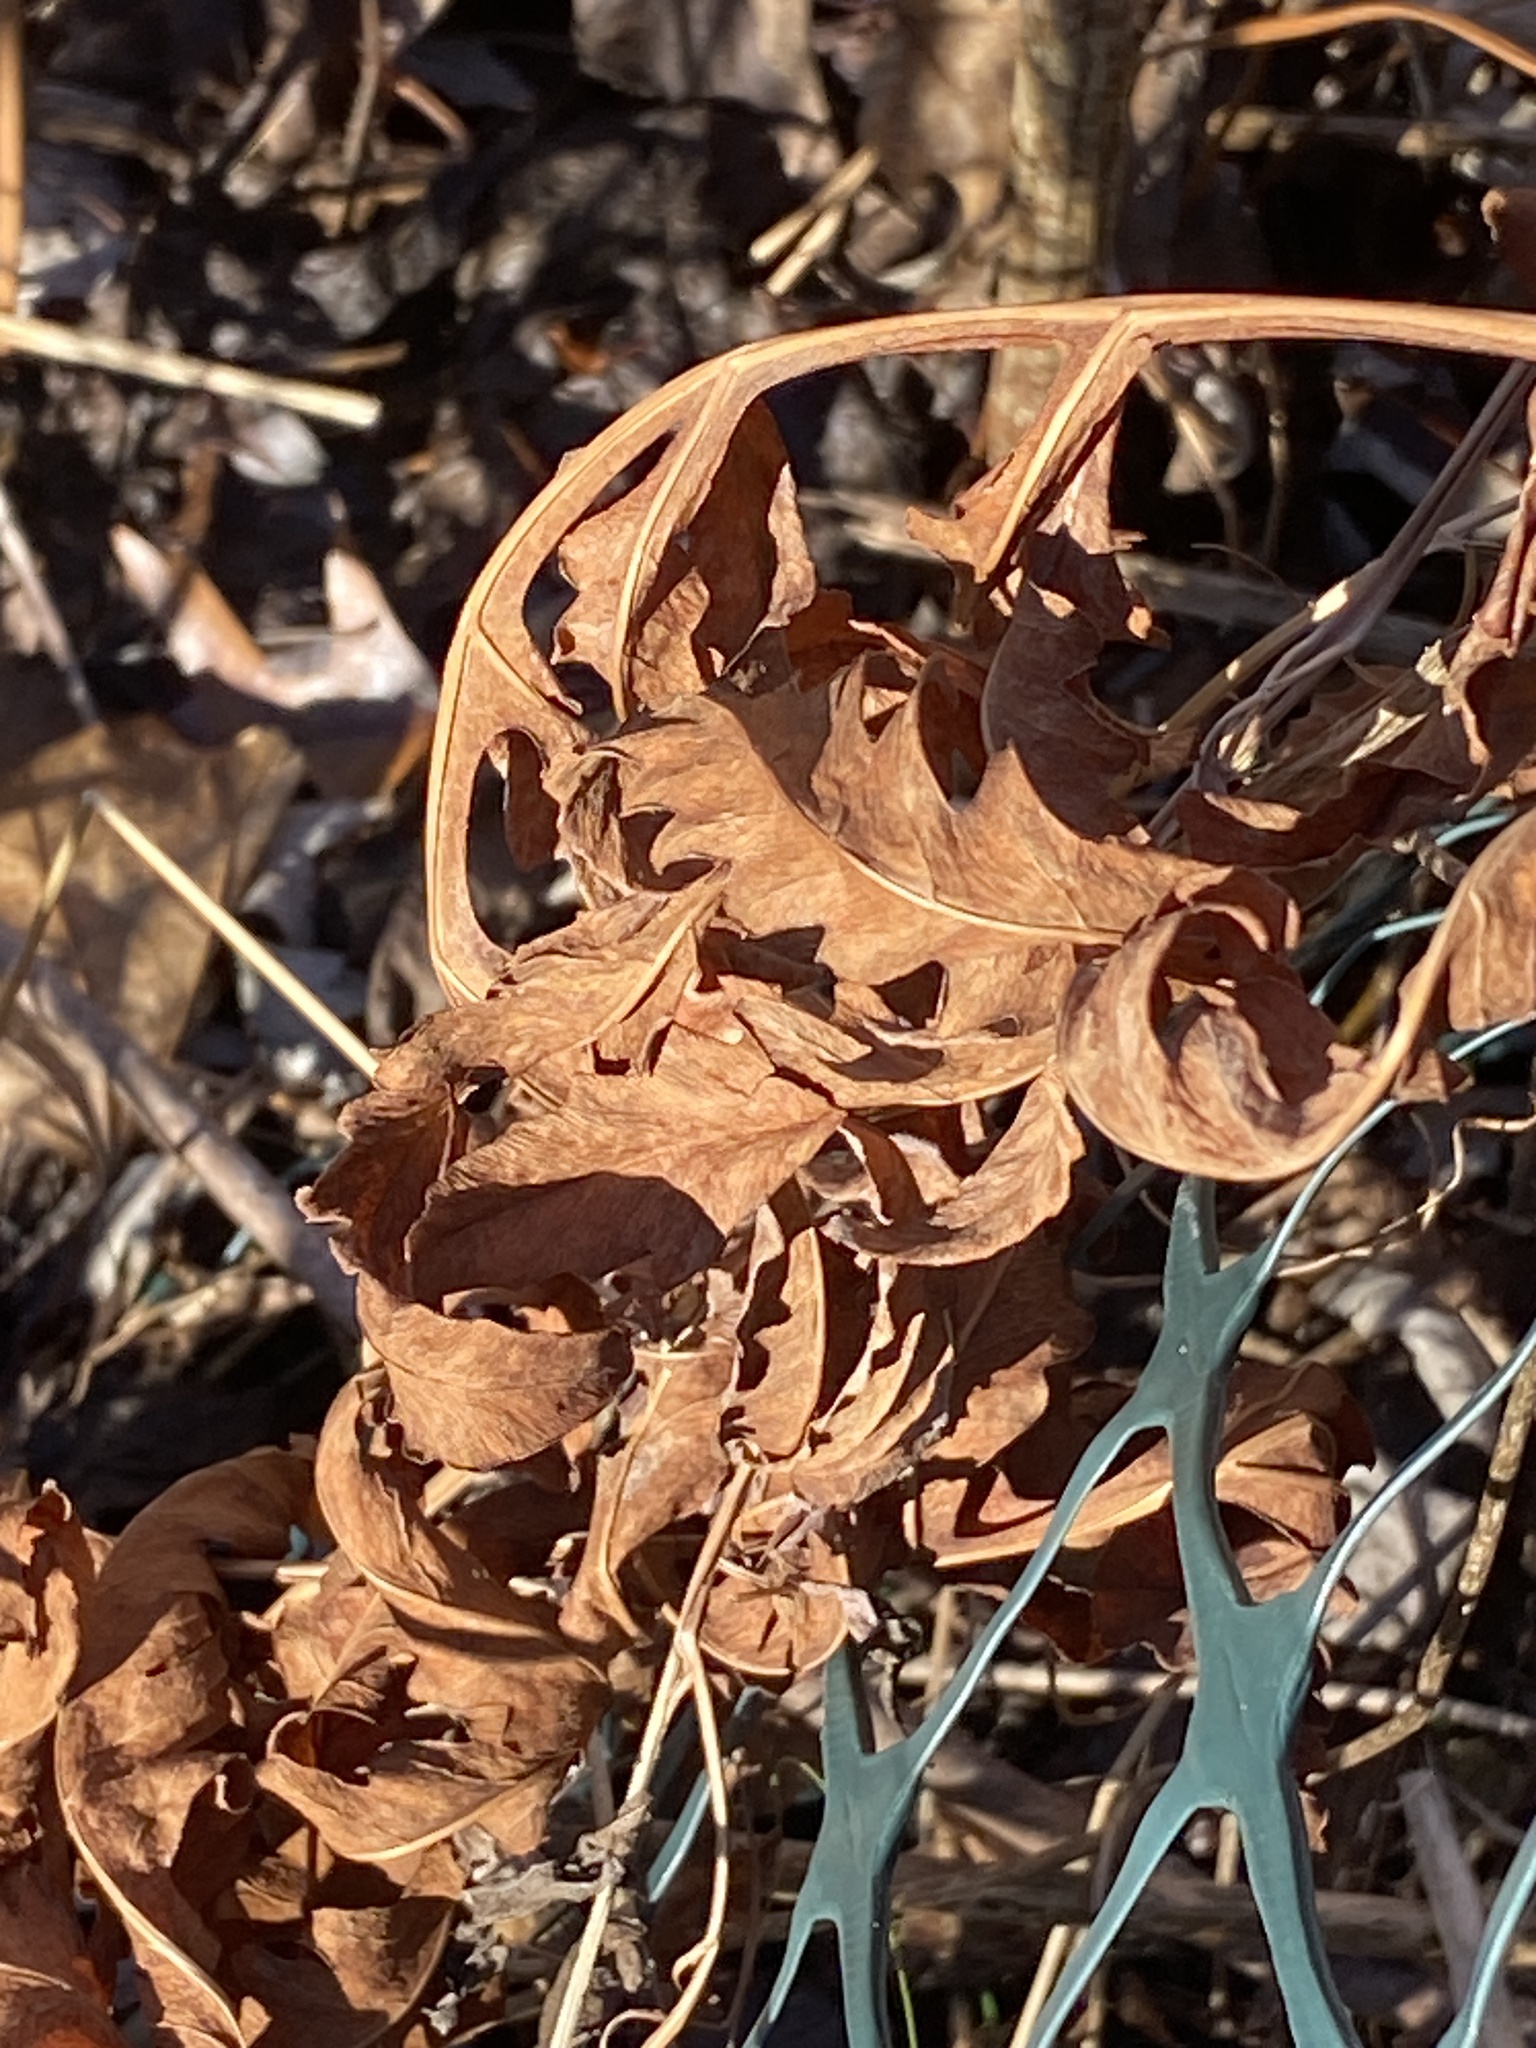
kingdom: Plantae
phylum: Tracheophyta
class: Polypodiopsida
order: Polypodiales
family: Onocleaceae
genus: Onoclea
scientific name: Onoclea sensibilis
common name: Sensitive fern
